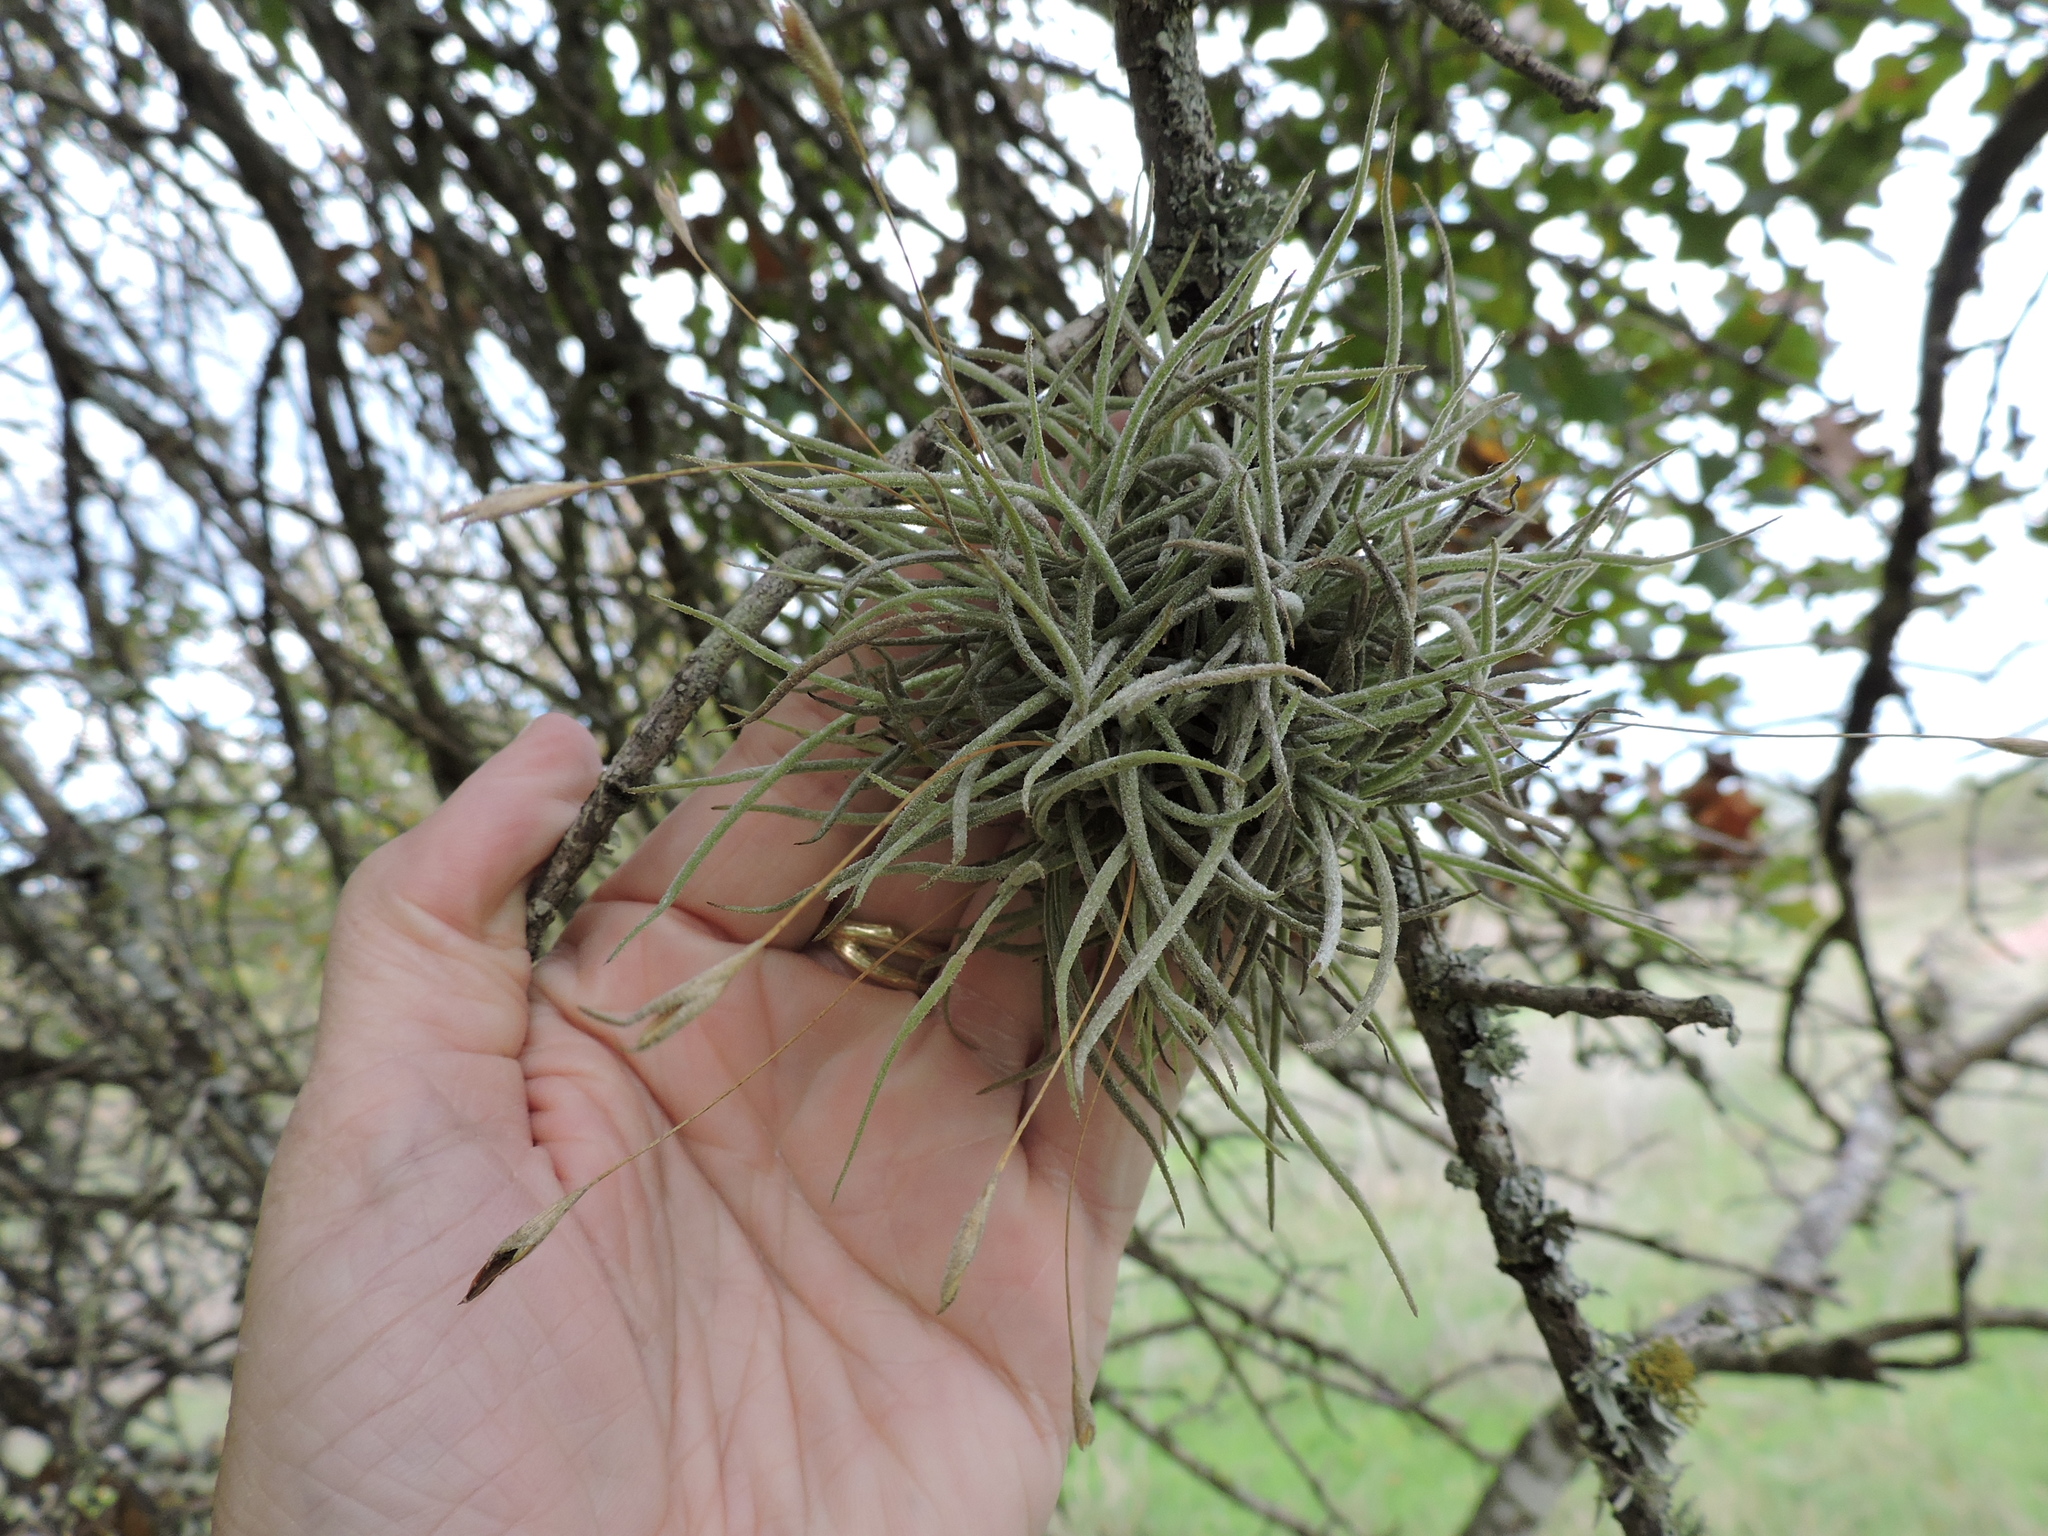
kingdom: Plantae
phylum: Tracheophyta
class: Liliopsida
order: Poales
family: Bromeliaceae
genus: Tillandsia
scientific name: Tillandsia recurvata
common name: Small ballmoss
